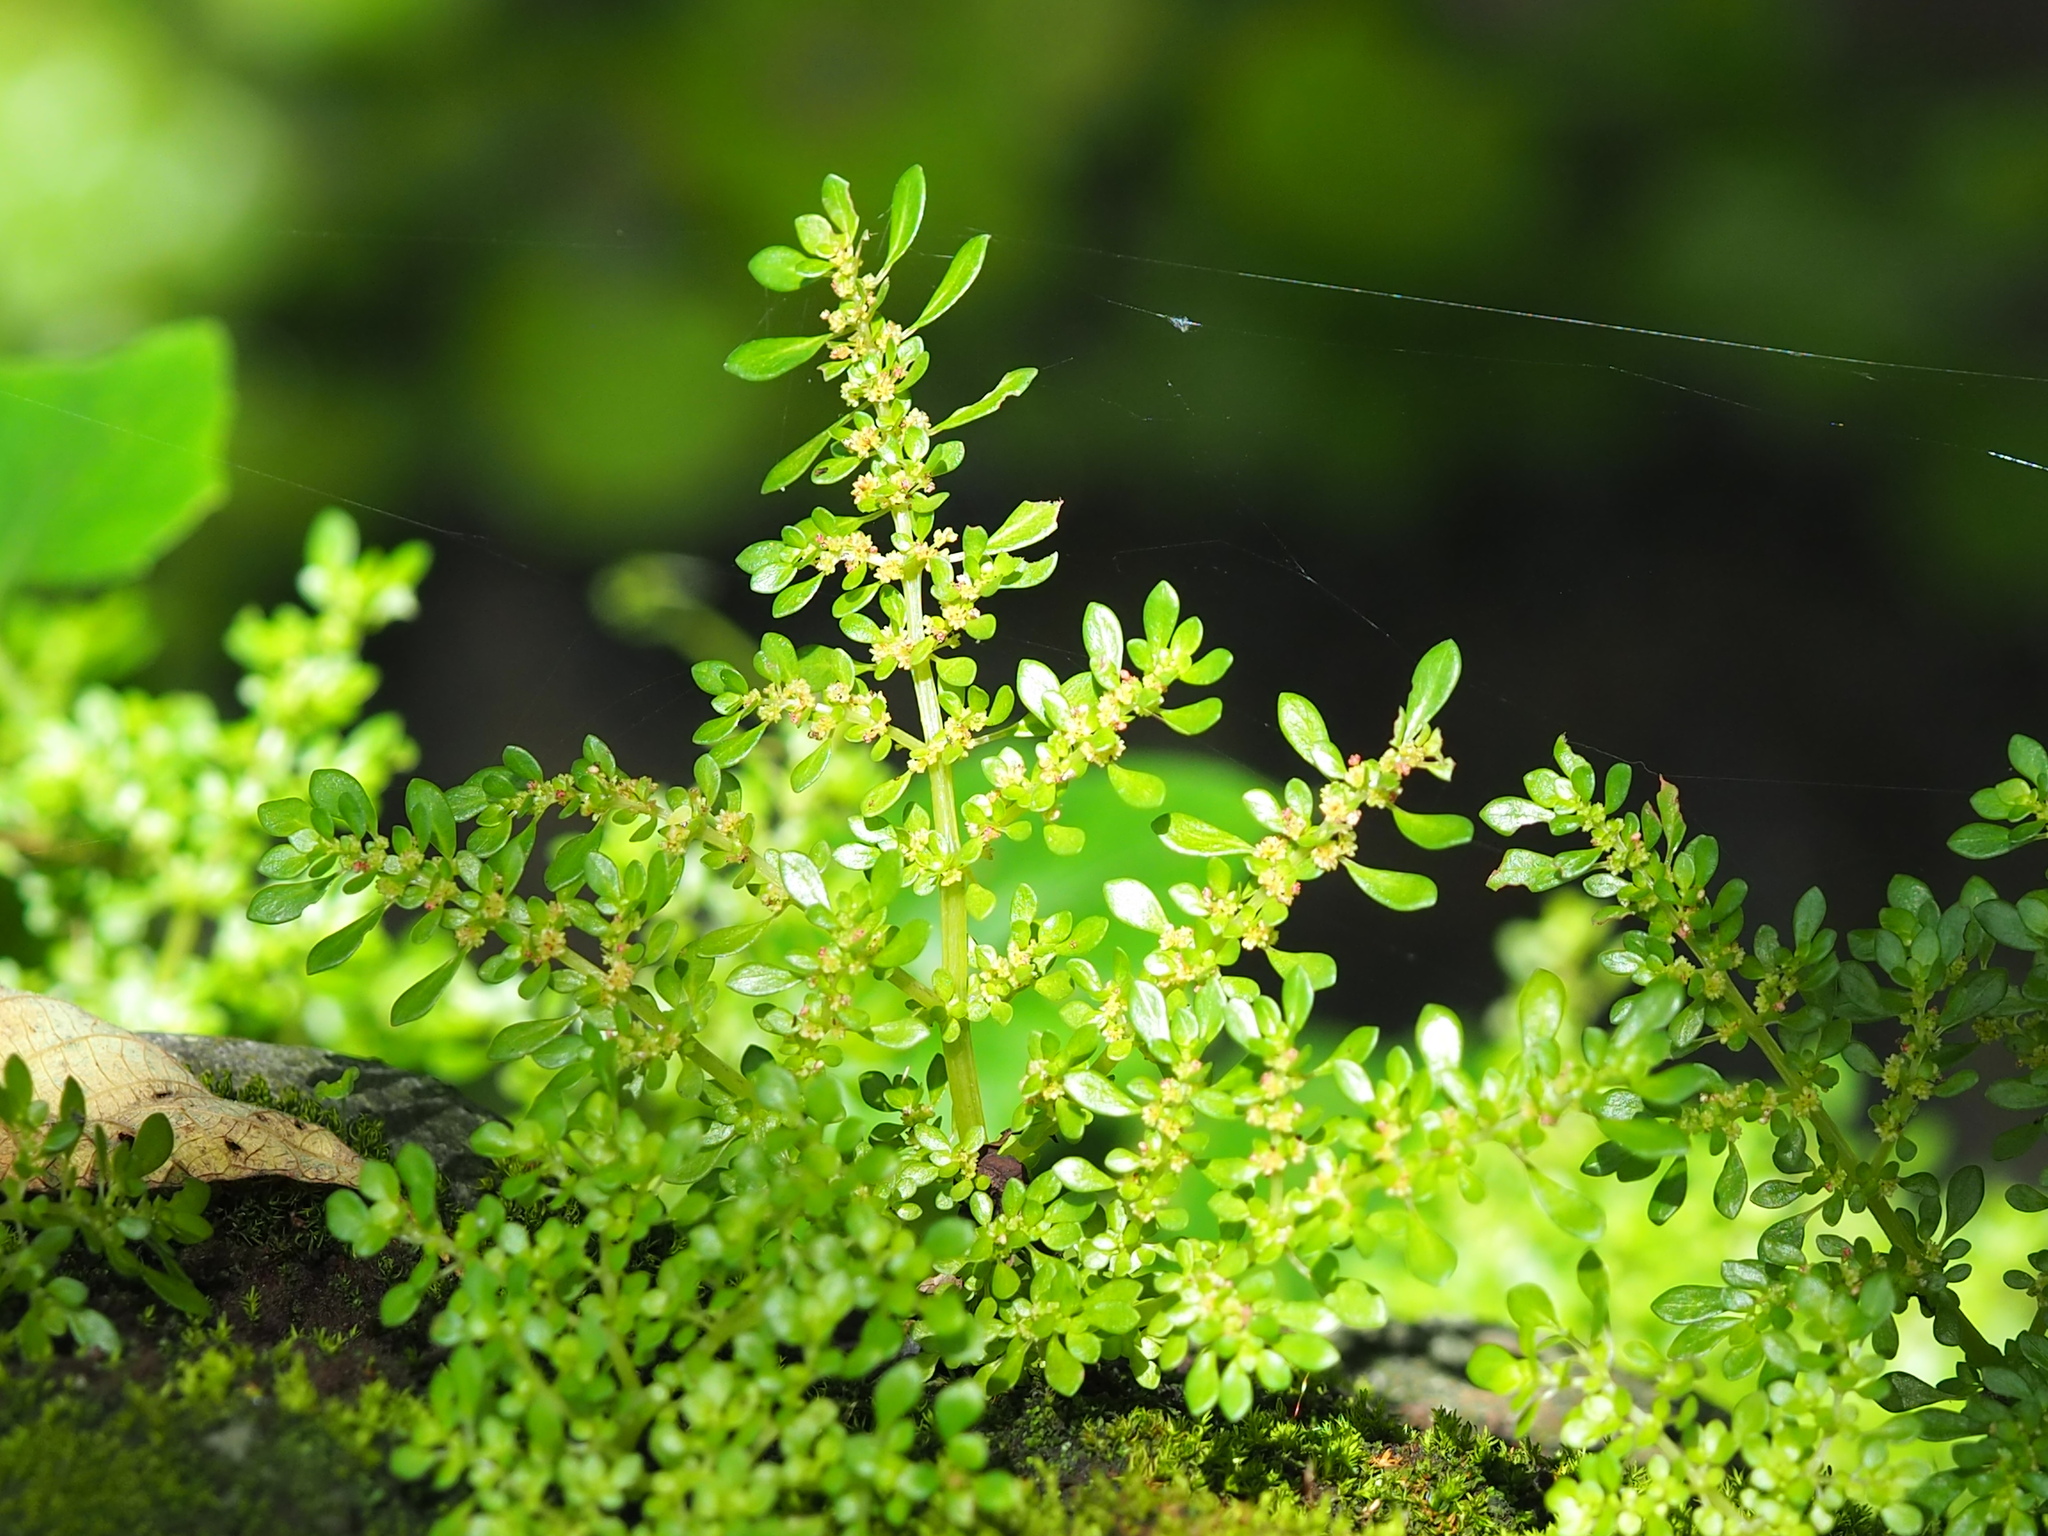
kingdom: Plantae
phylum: Tracheophyta
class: Magnoliopsida
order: Rosales
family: Urticaceae
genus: Pilea
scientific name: Pilea microphylla
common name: Artillery-plant
